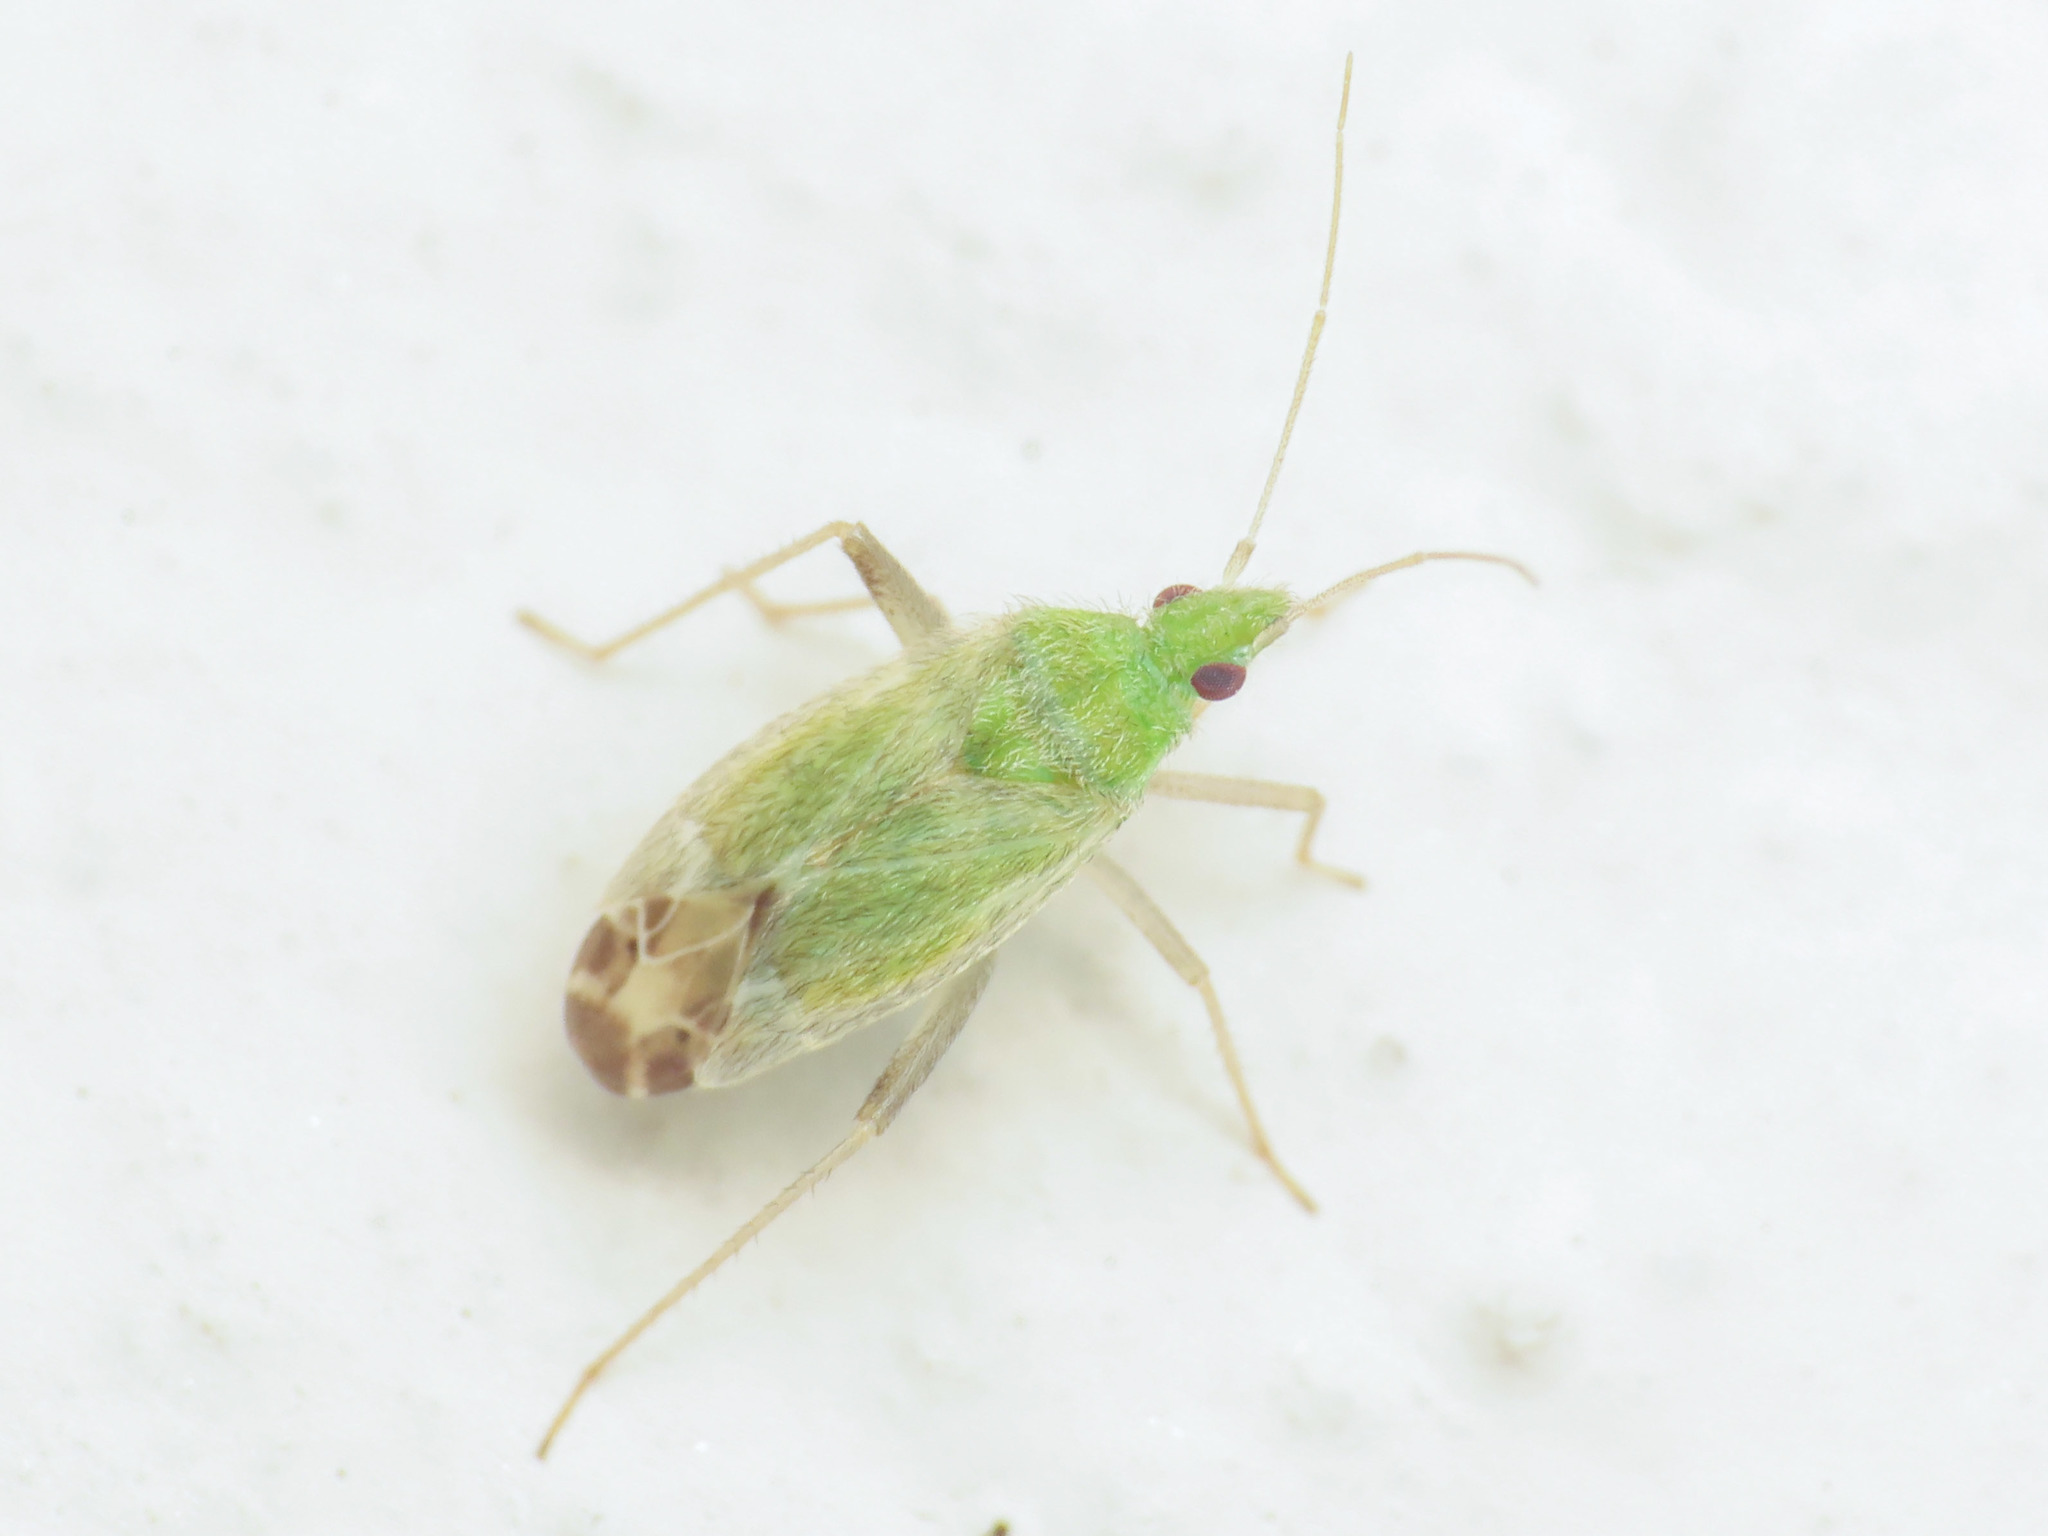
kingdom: Animalia
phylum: Arthropoda
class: Insecta
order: Hemiptera
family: Miridae
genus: Macrotylus
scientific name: Macrotylus horvathi
